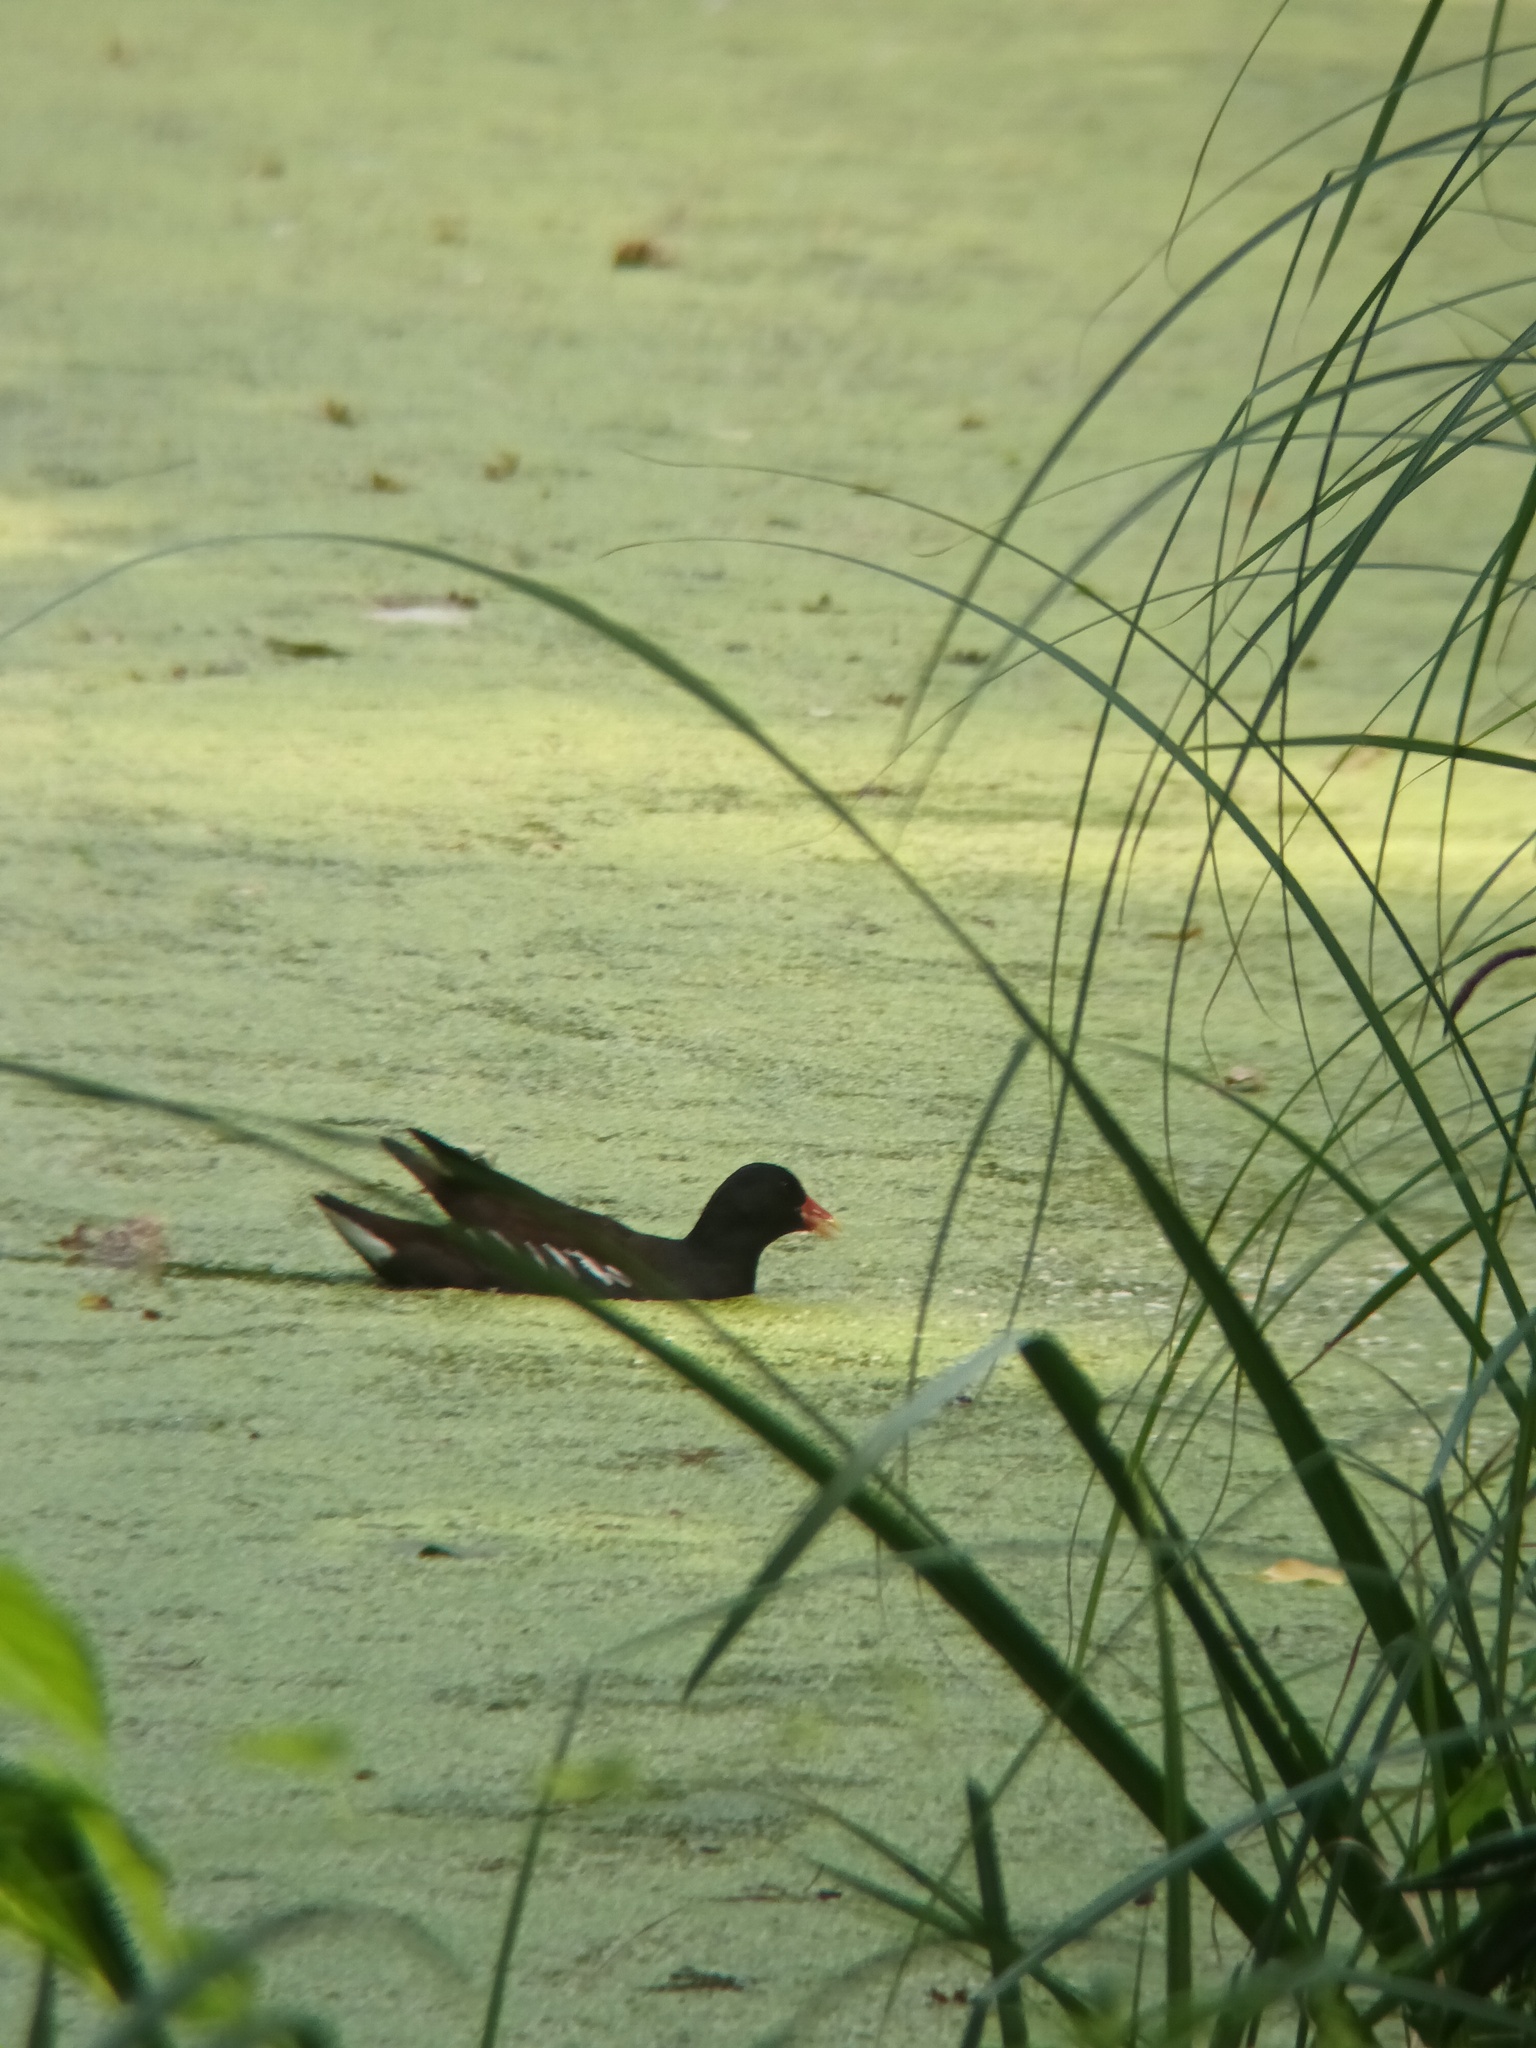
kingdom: Animalia
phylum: Chordata
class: Aves
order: Gruiformes
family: Rallidae
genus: Gallinula
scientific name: Gallinula chloropus
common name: Common moorhen
